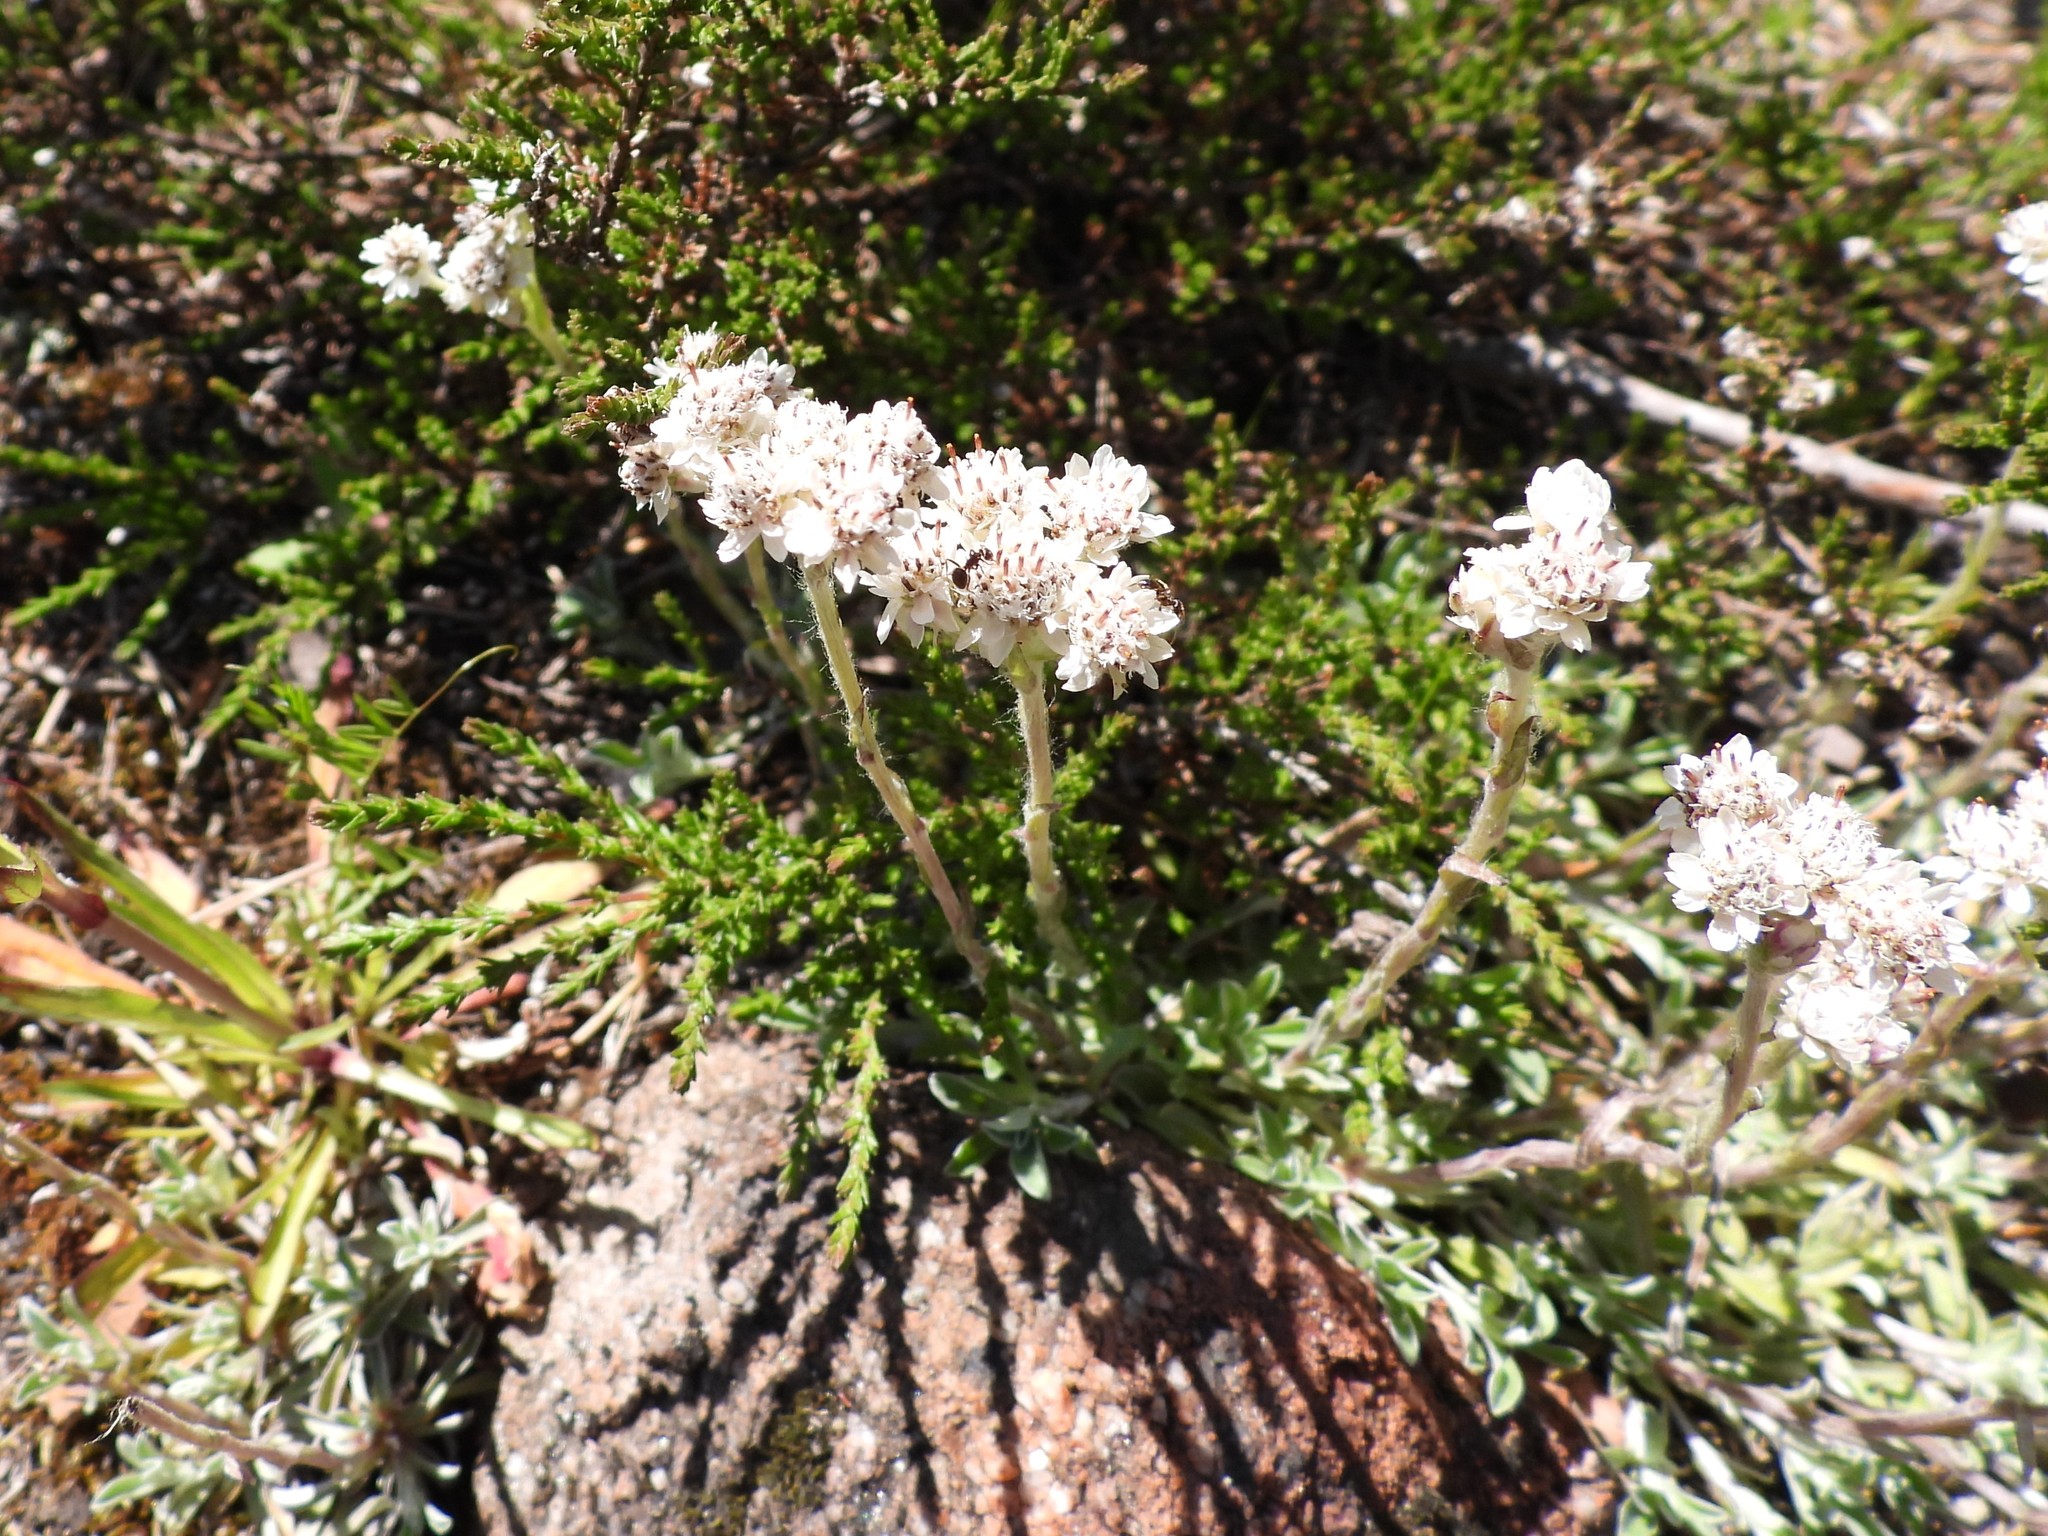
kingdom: Plantae
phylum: Tracheophyta
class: Magnoliopsida
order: Asterales
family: Asteraceae
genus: Antennaria
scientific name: Antennaria dioica
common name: Mountain everlasting
